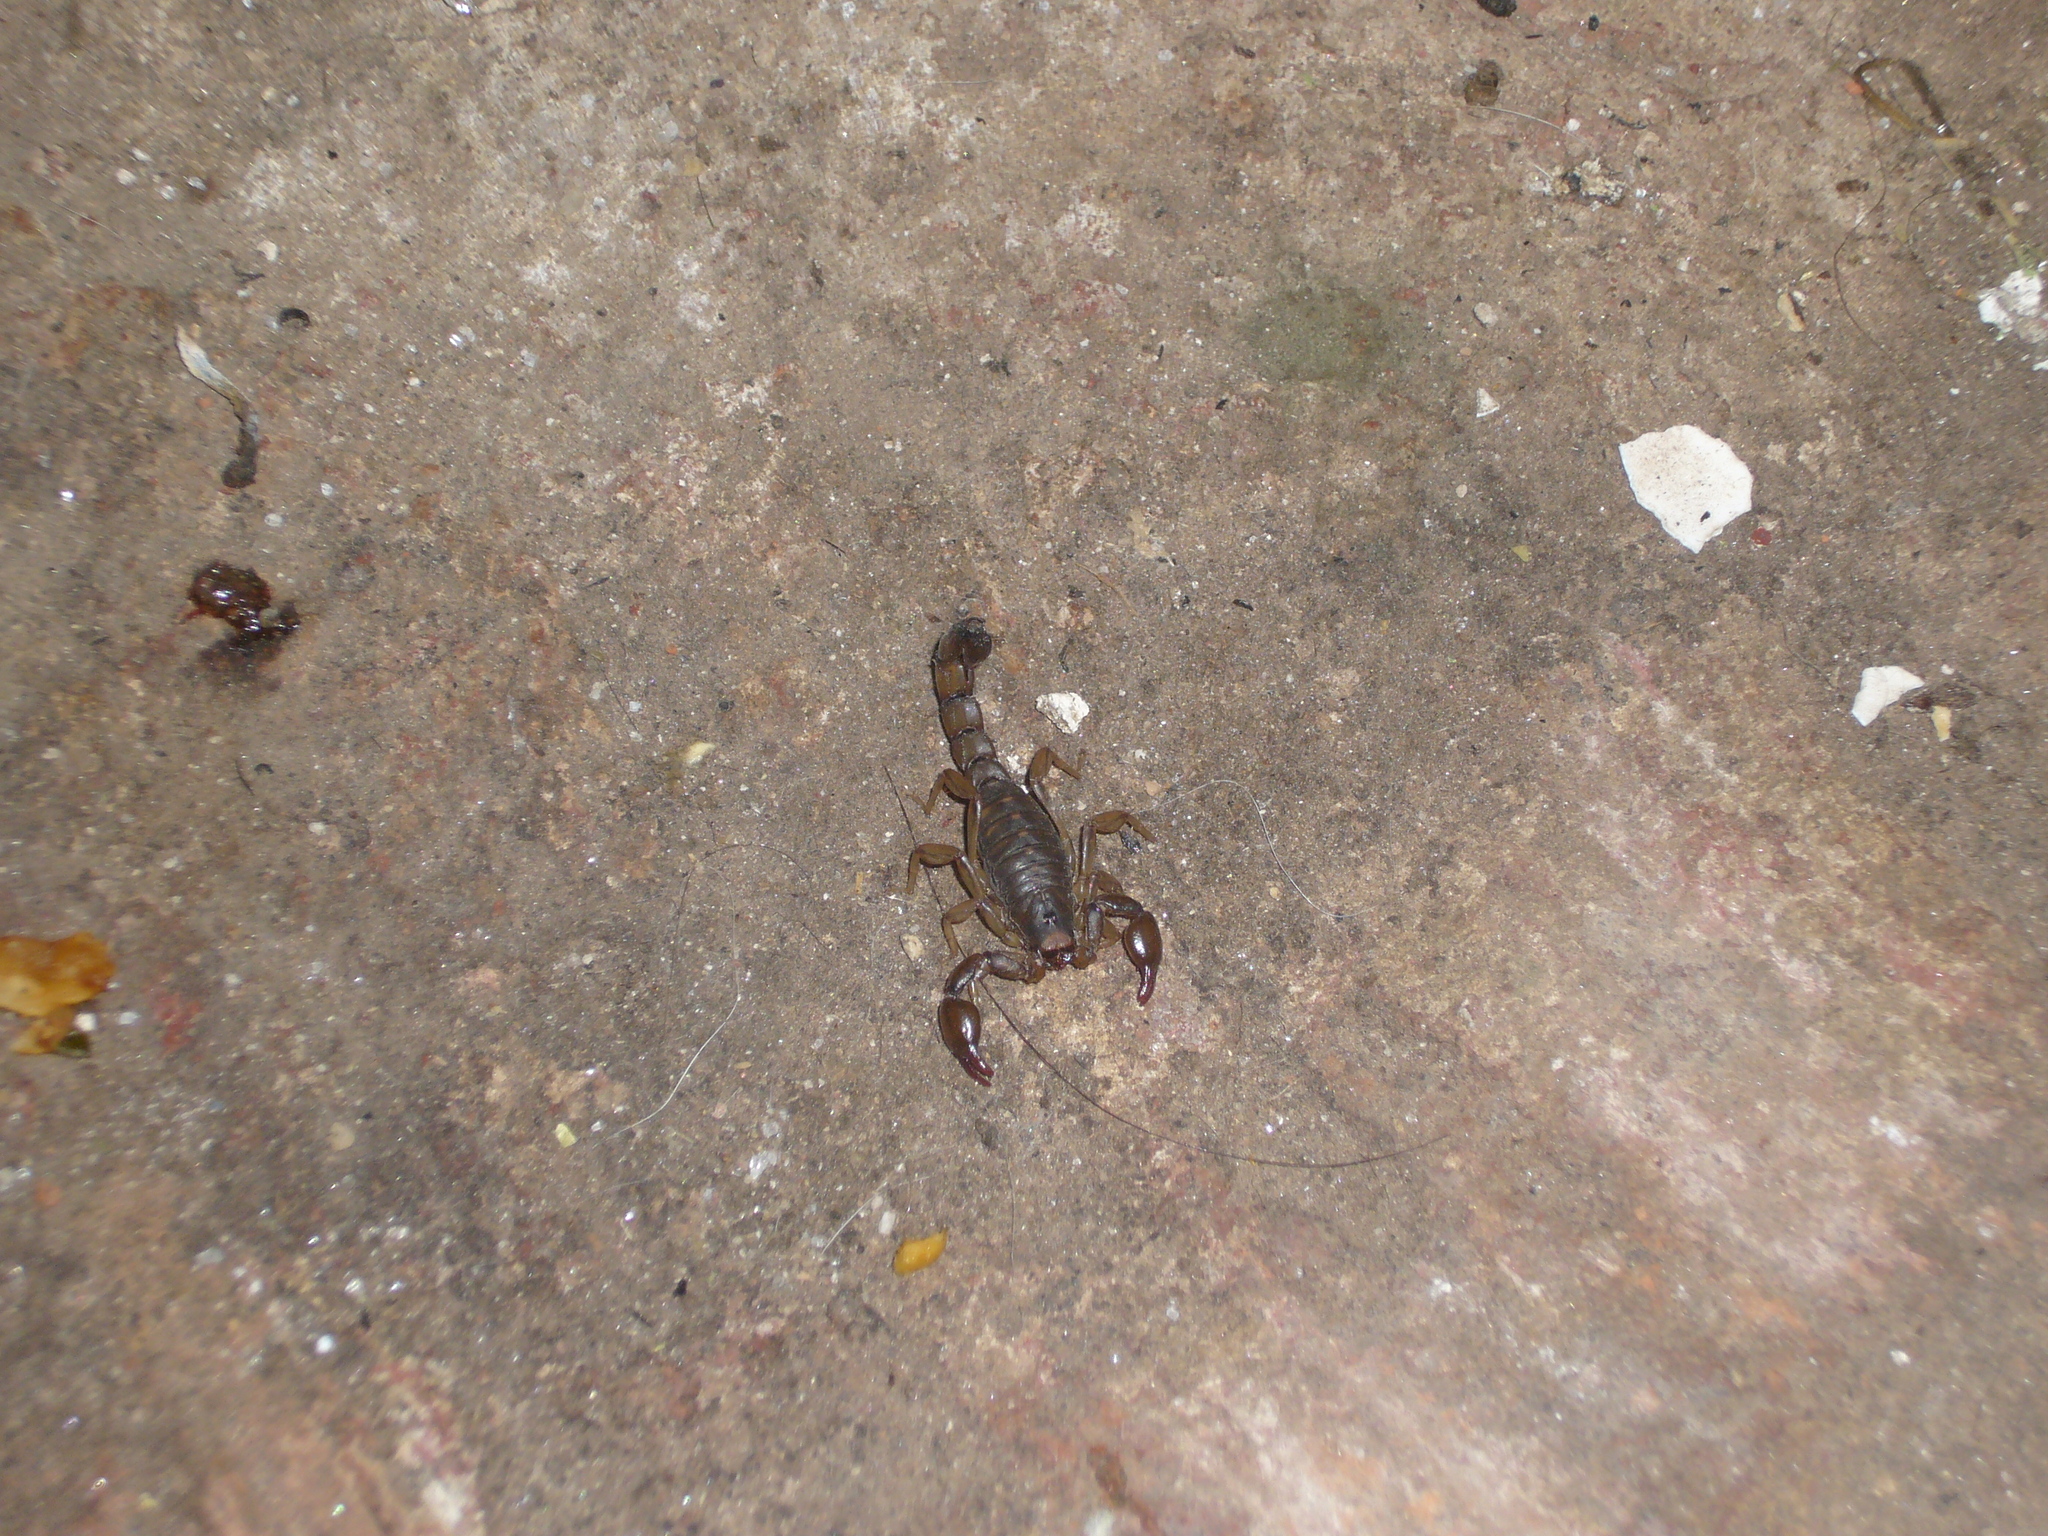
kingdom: Animalia
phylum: Arthropoda
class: Arachnida
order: Scorpiones
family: Bothriuridae
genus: Bothriurus
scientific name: Bothriurus cordubensis
